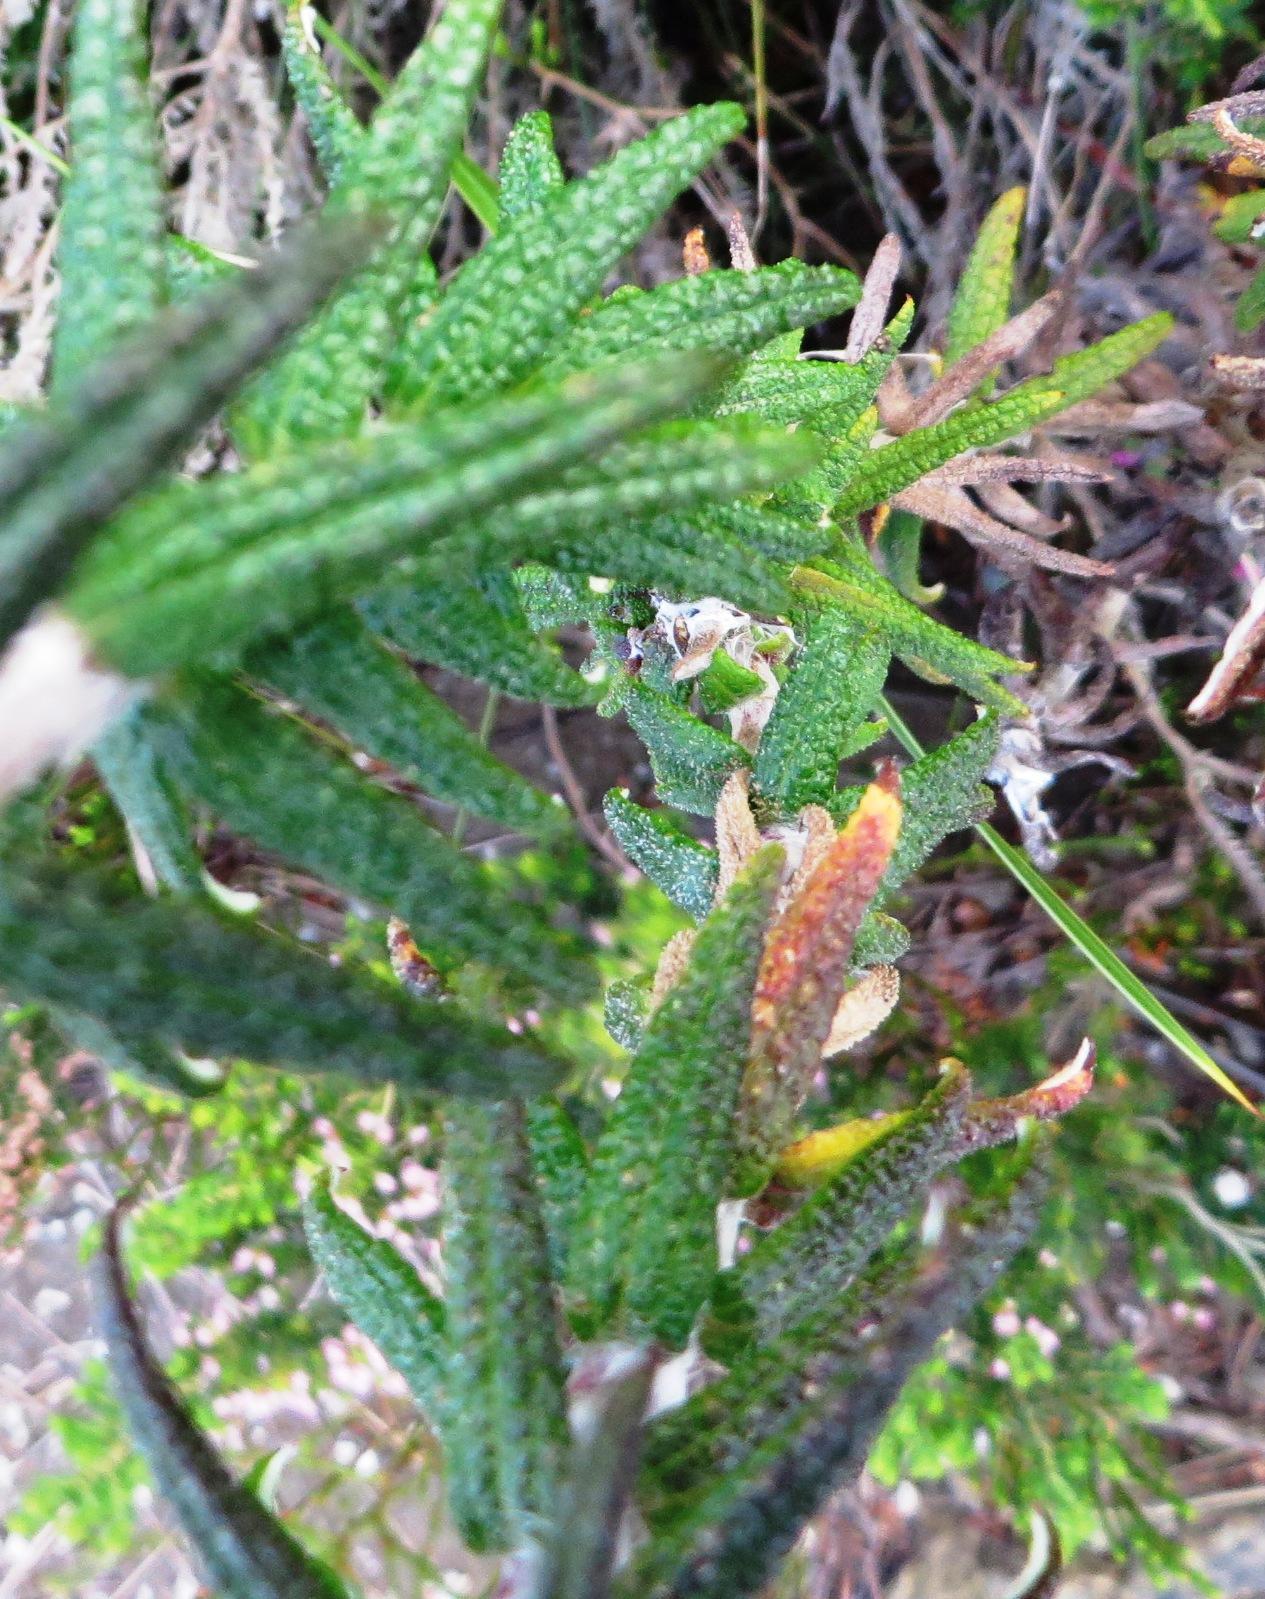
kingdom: Plantae
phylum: Tracheophyta
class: Magnoliopsida
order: Asterales
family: Asteraceae
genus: Helichrysum
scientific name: Helichrysum felinum
